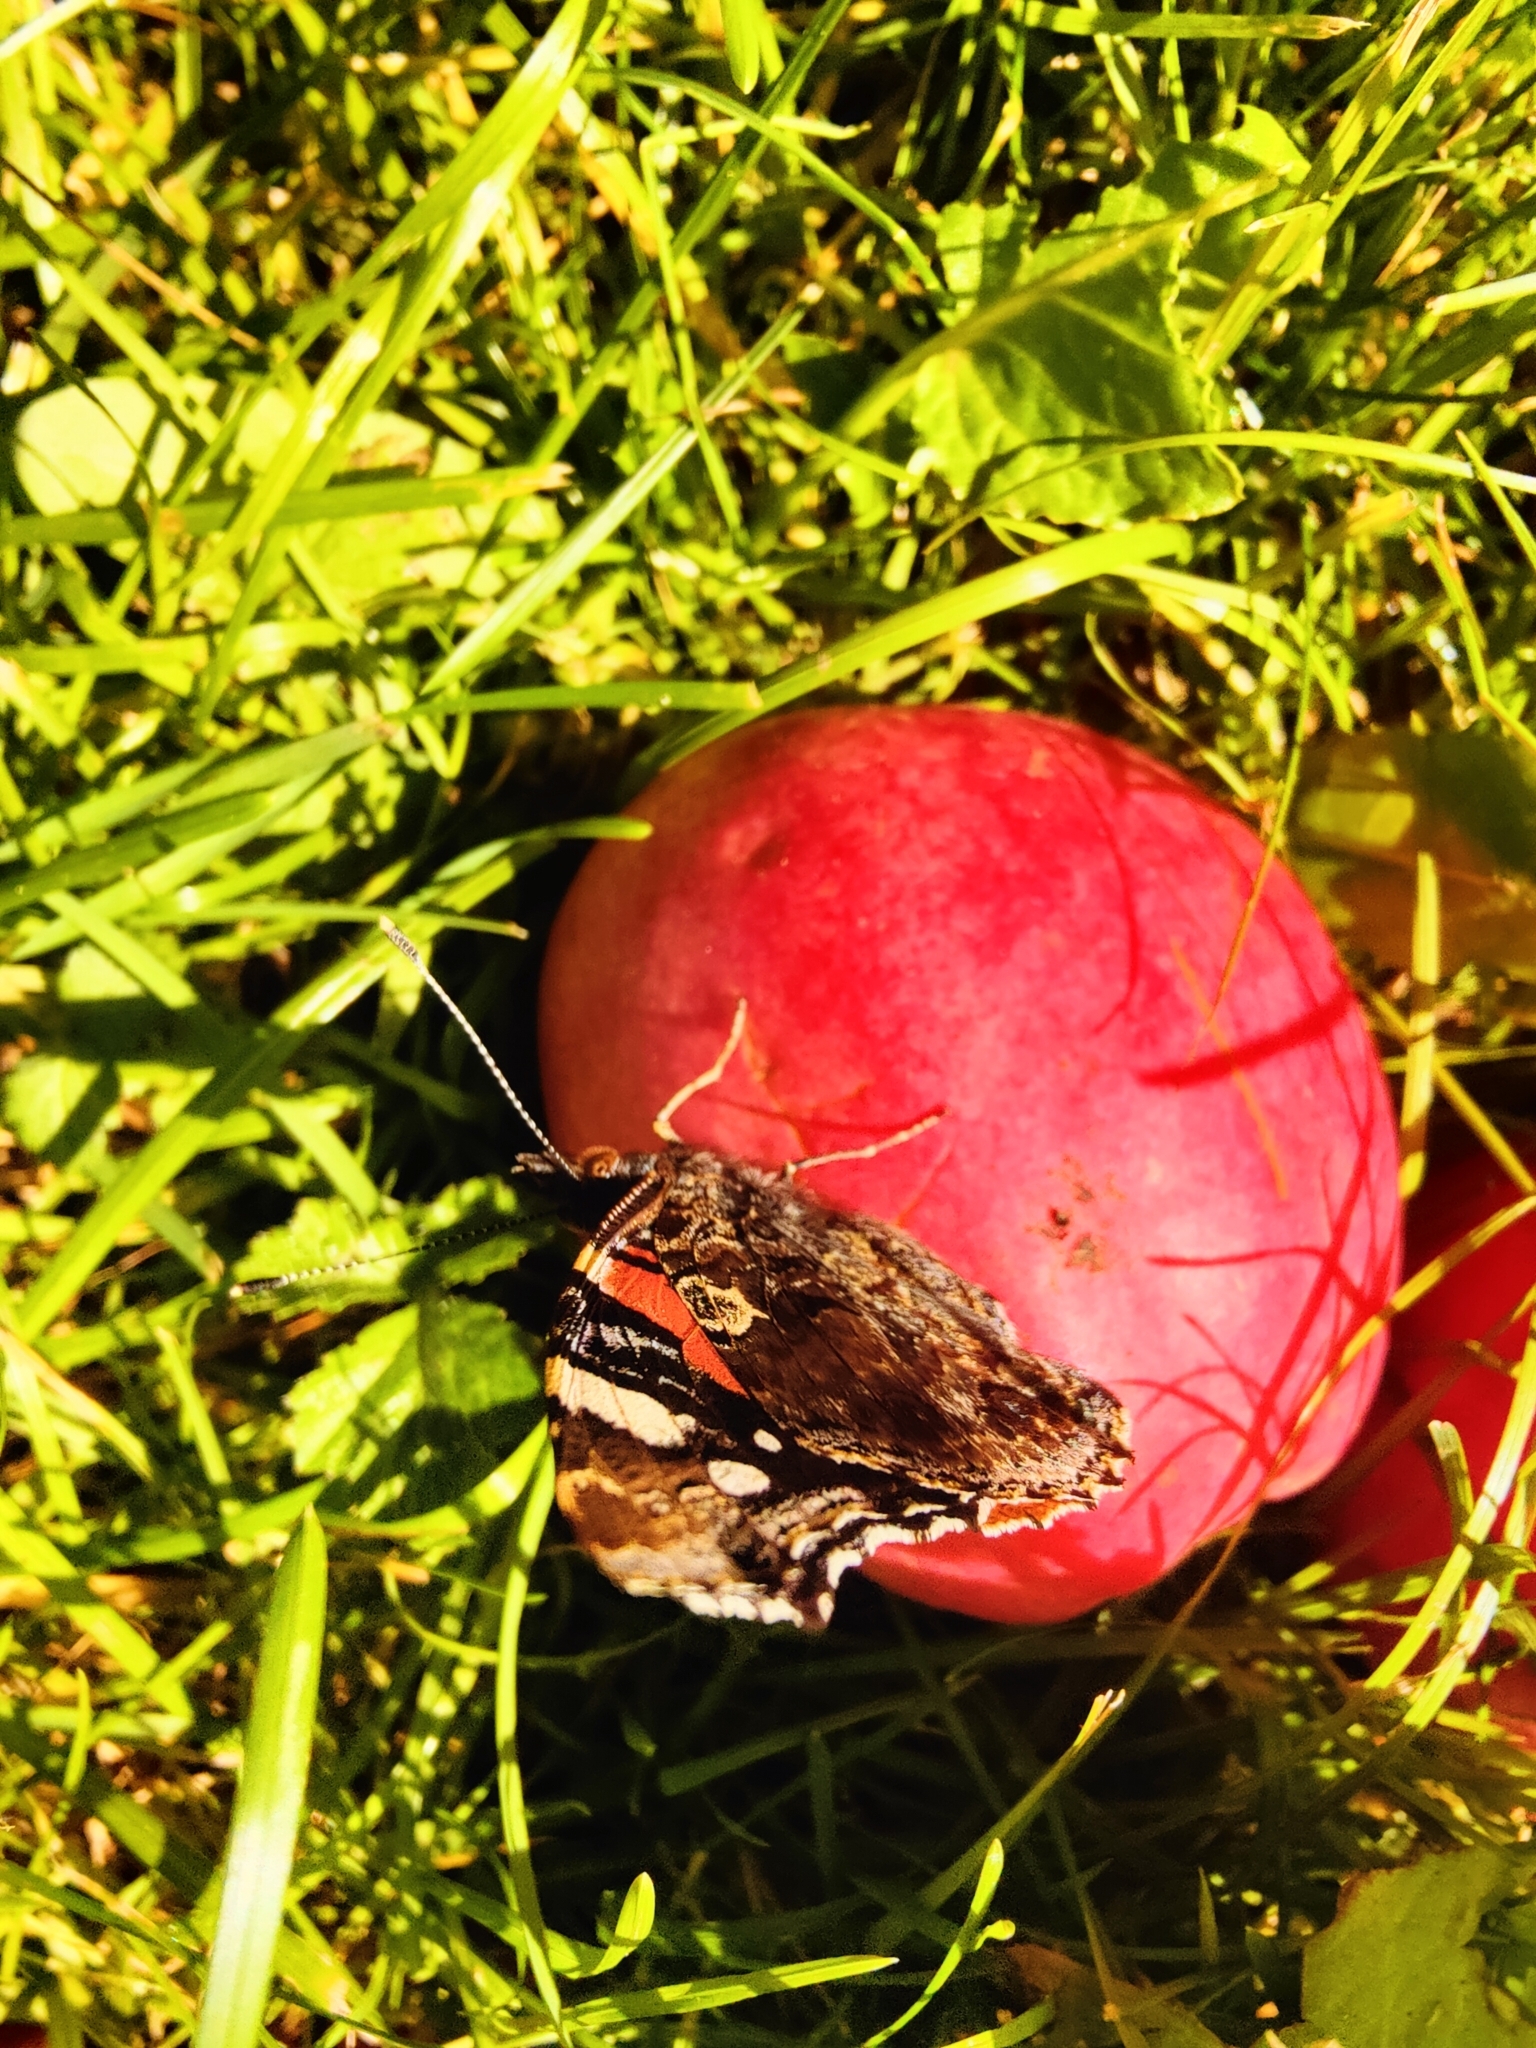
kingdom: Animalia
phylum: Arthropoda
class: Insecta
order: Lepidoptera
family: Nymphalidae
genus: Vanessa
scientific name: Vanessa atalanta
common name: Red admiral
